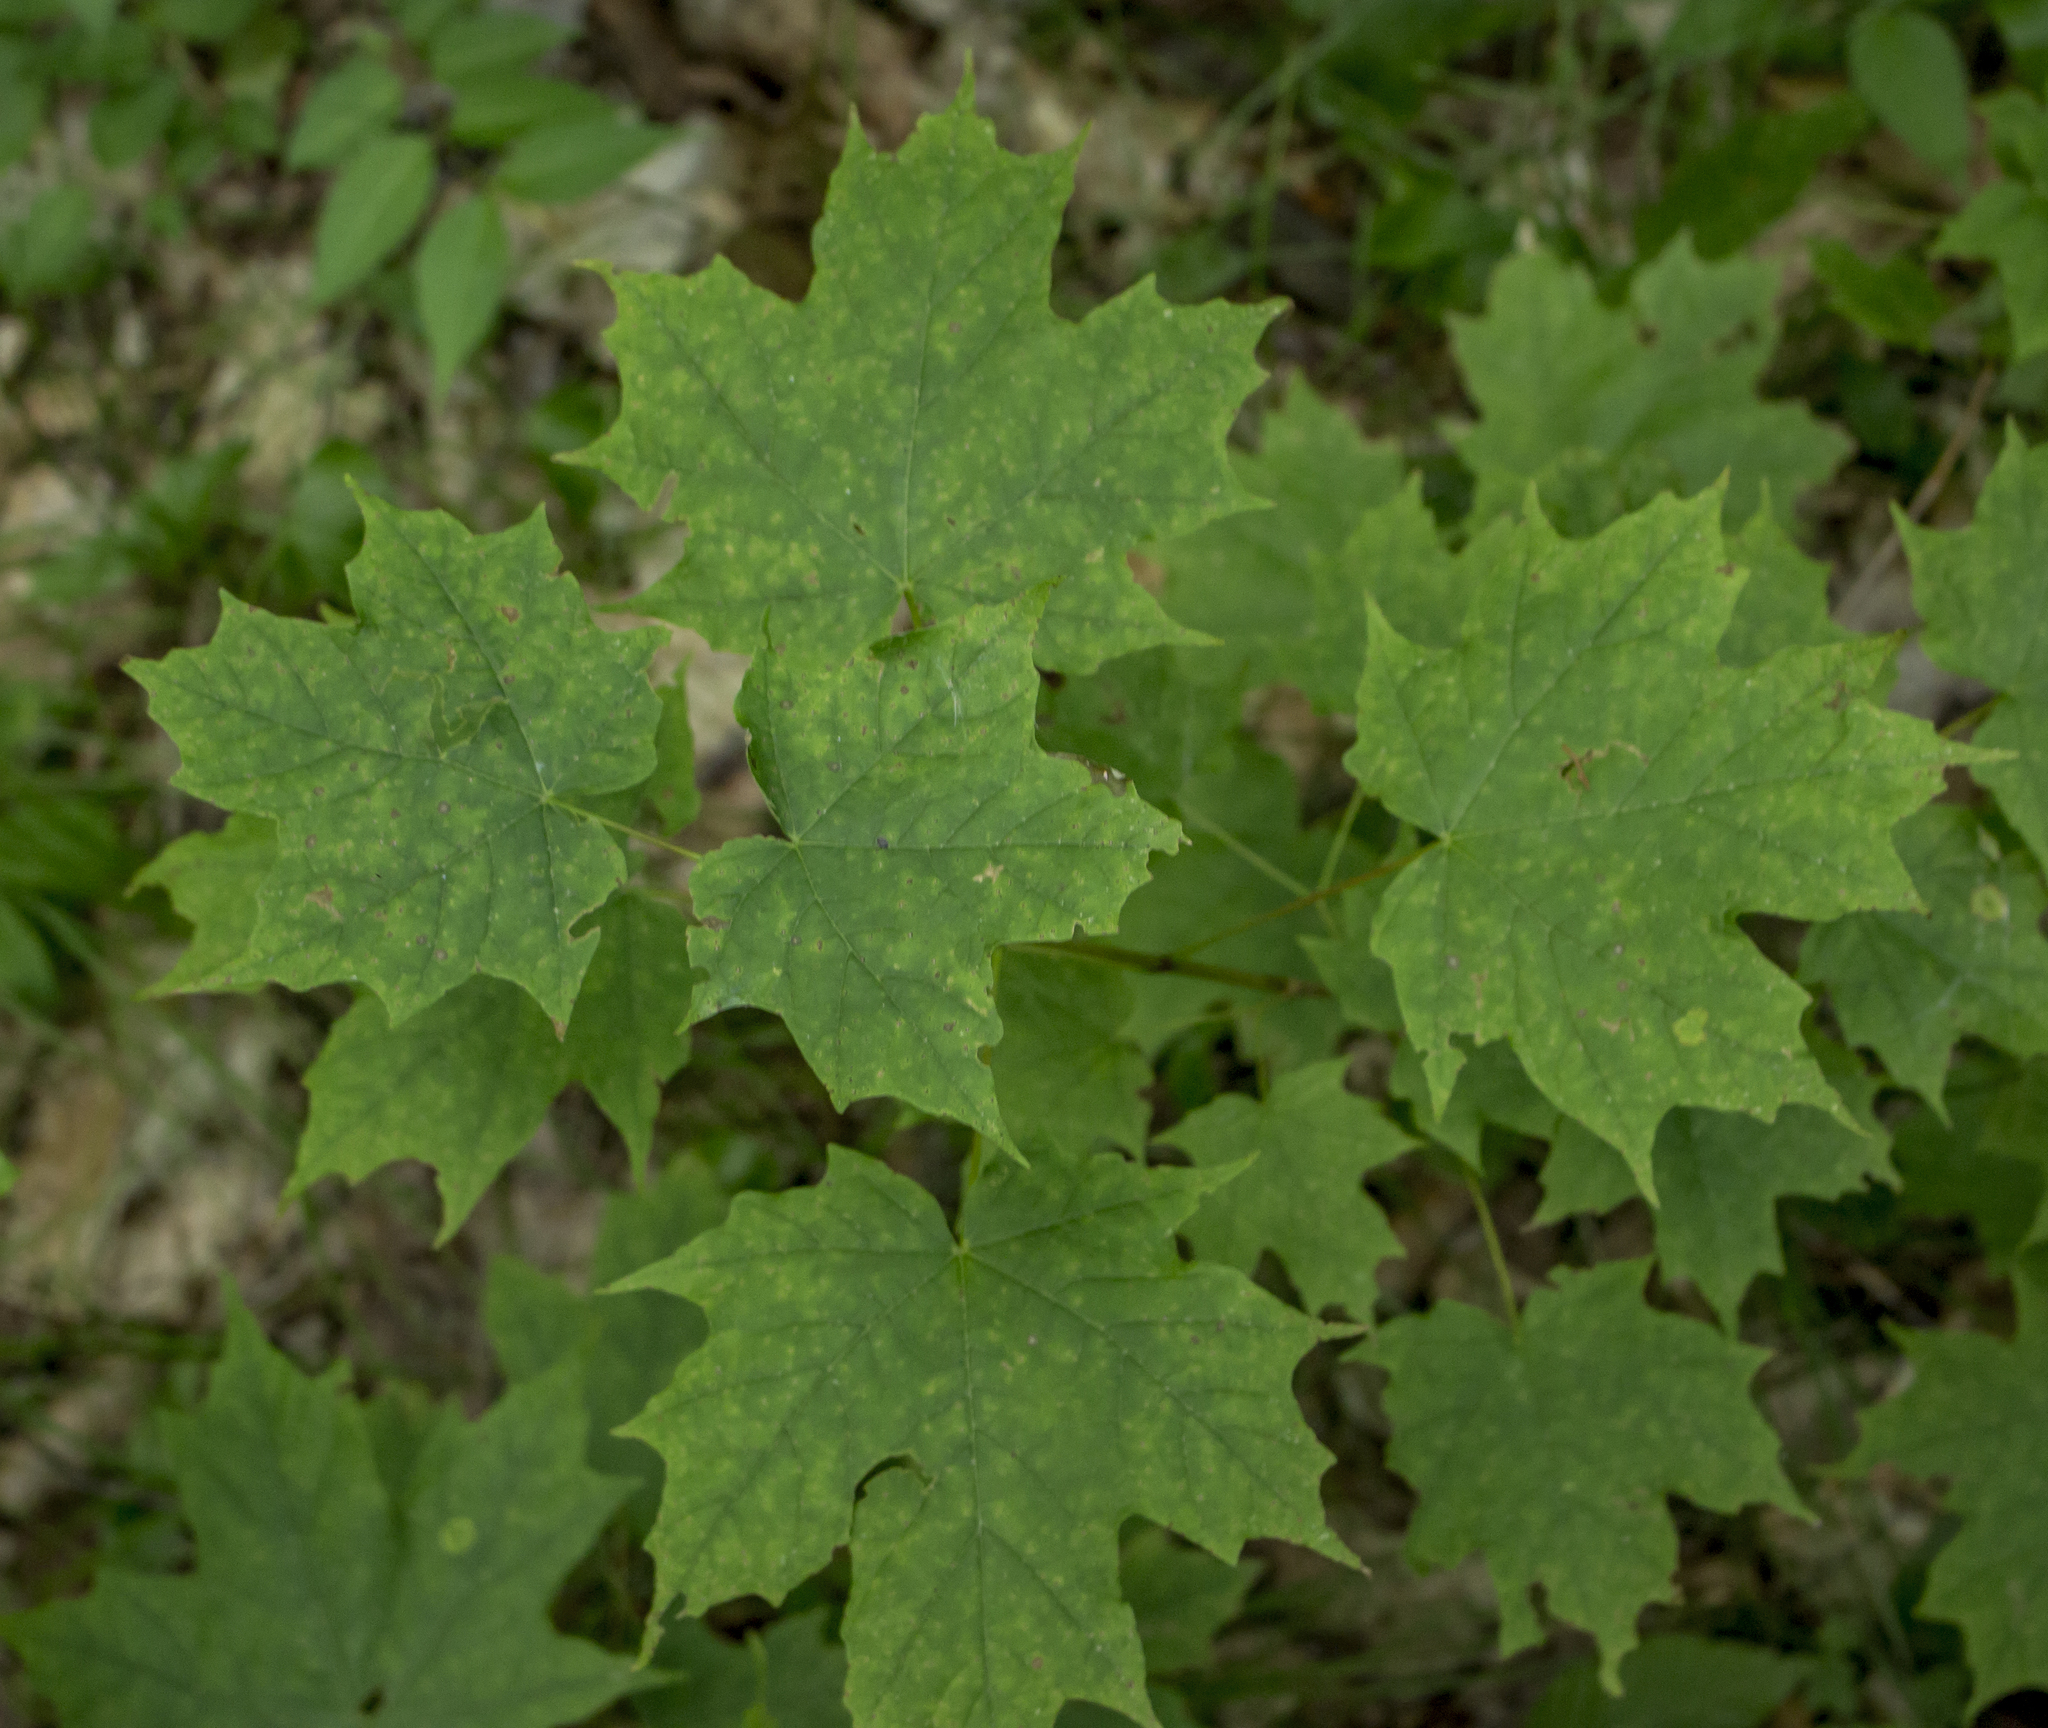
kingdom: Plantae
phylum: Tracheophyta
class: Magnoliopsida
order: Sapindales
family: Sapindaceae
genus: Acer
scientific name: Acer saccharum
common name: Sugar maple
